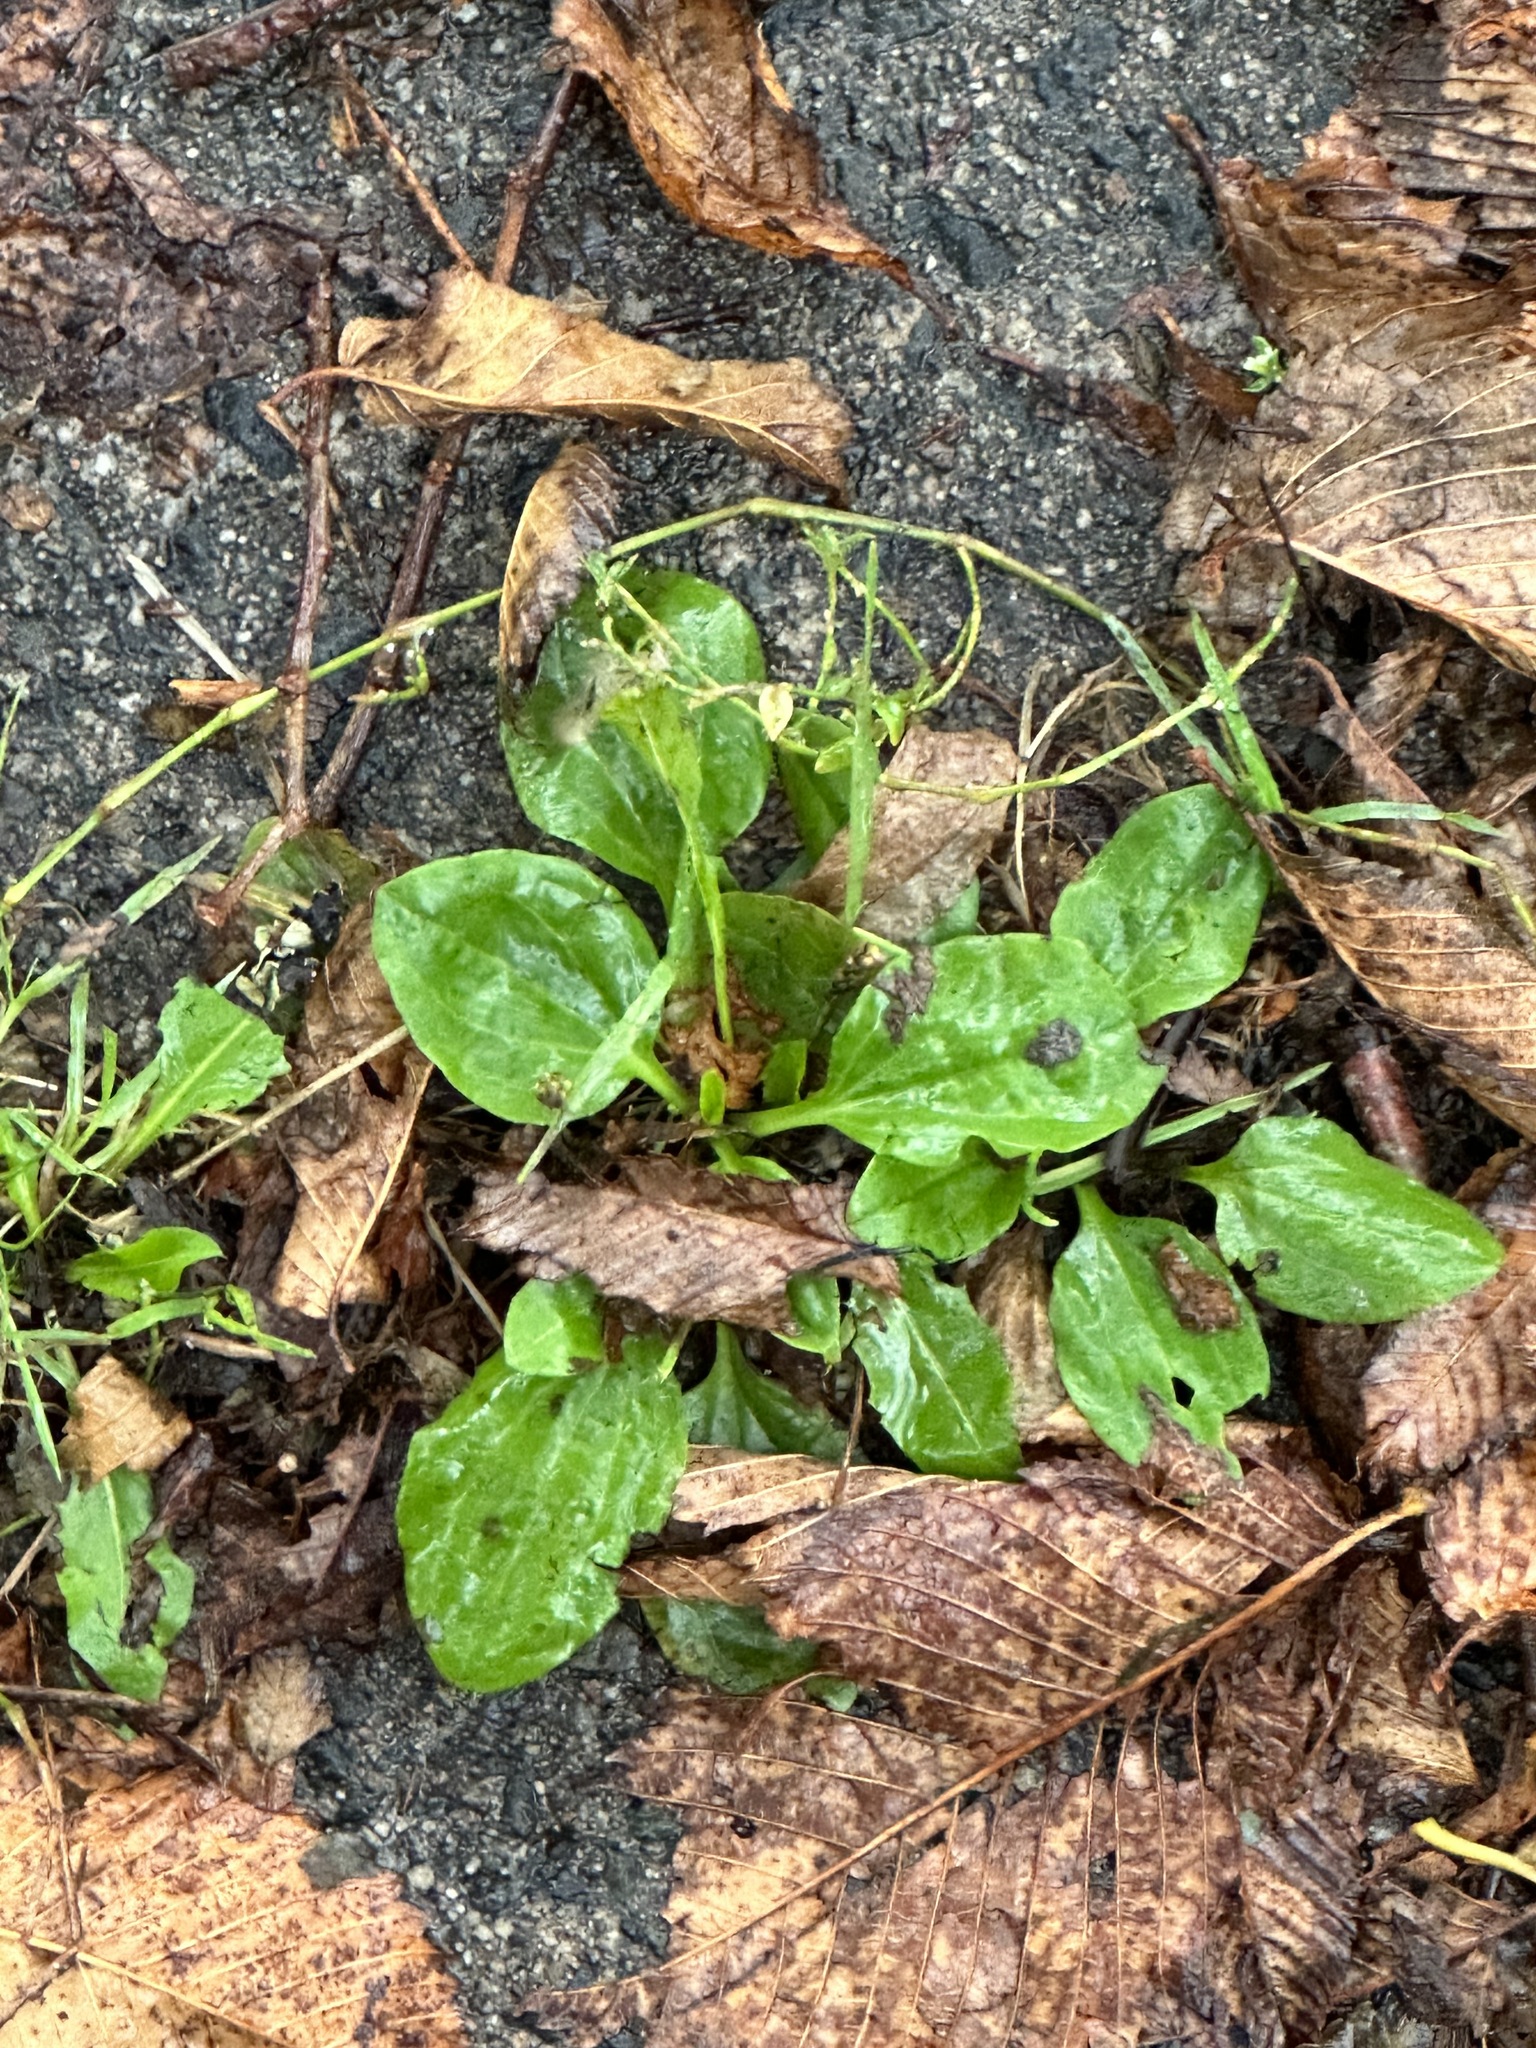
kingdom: Plantae
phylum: Tracheophyta
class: Magnoliopsida
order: Lamiales
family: Plantaginaceae
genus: Plantago
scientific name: Plantago major
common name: Common plantain
